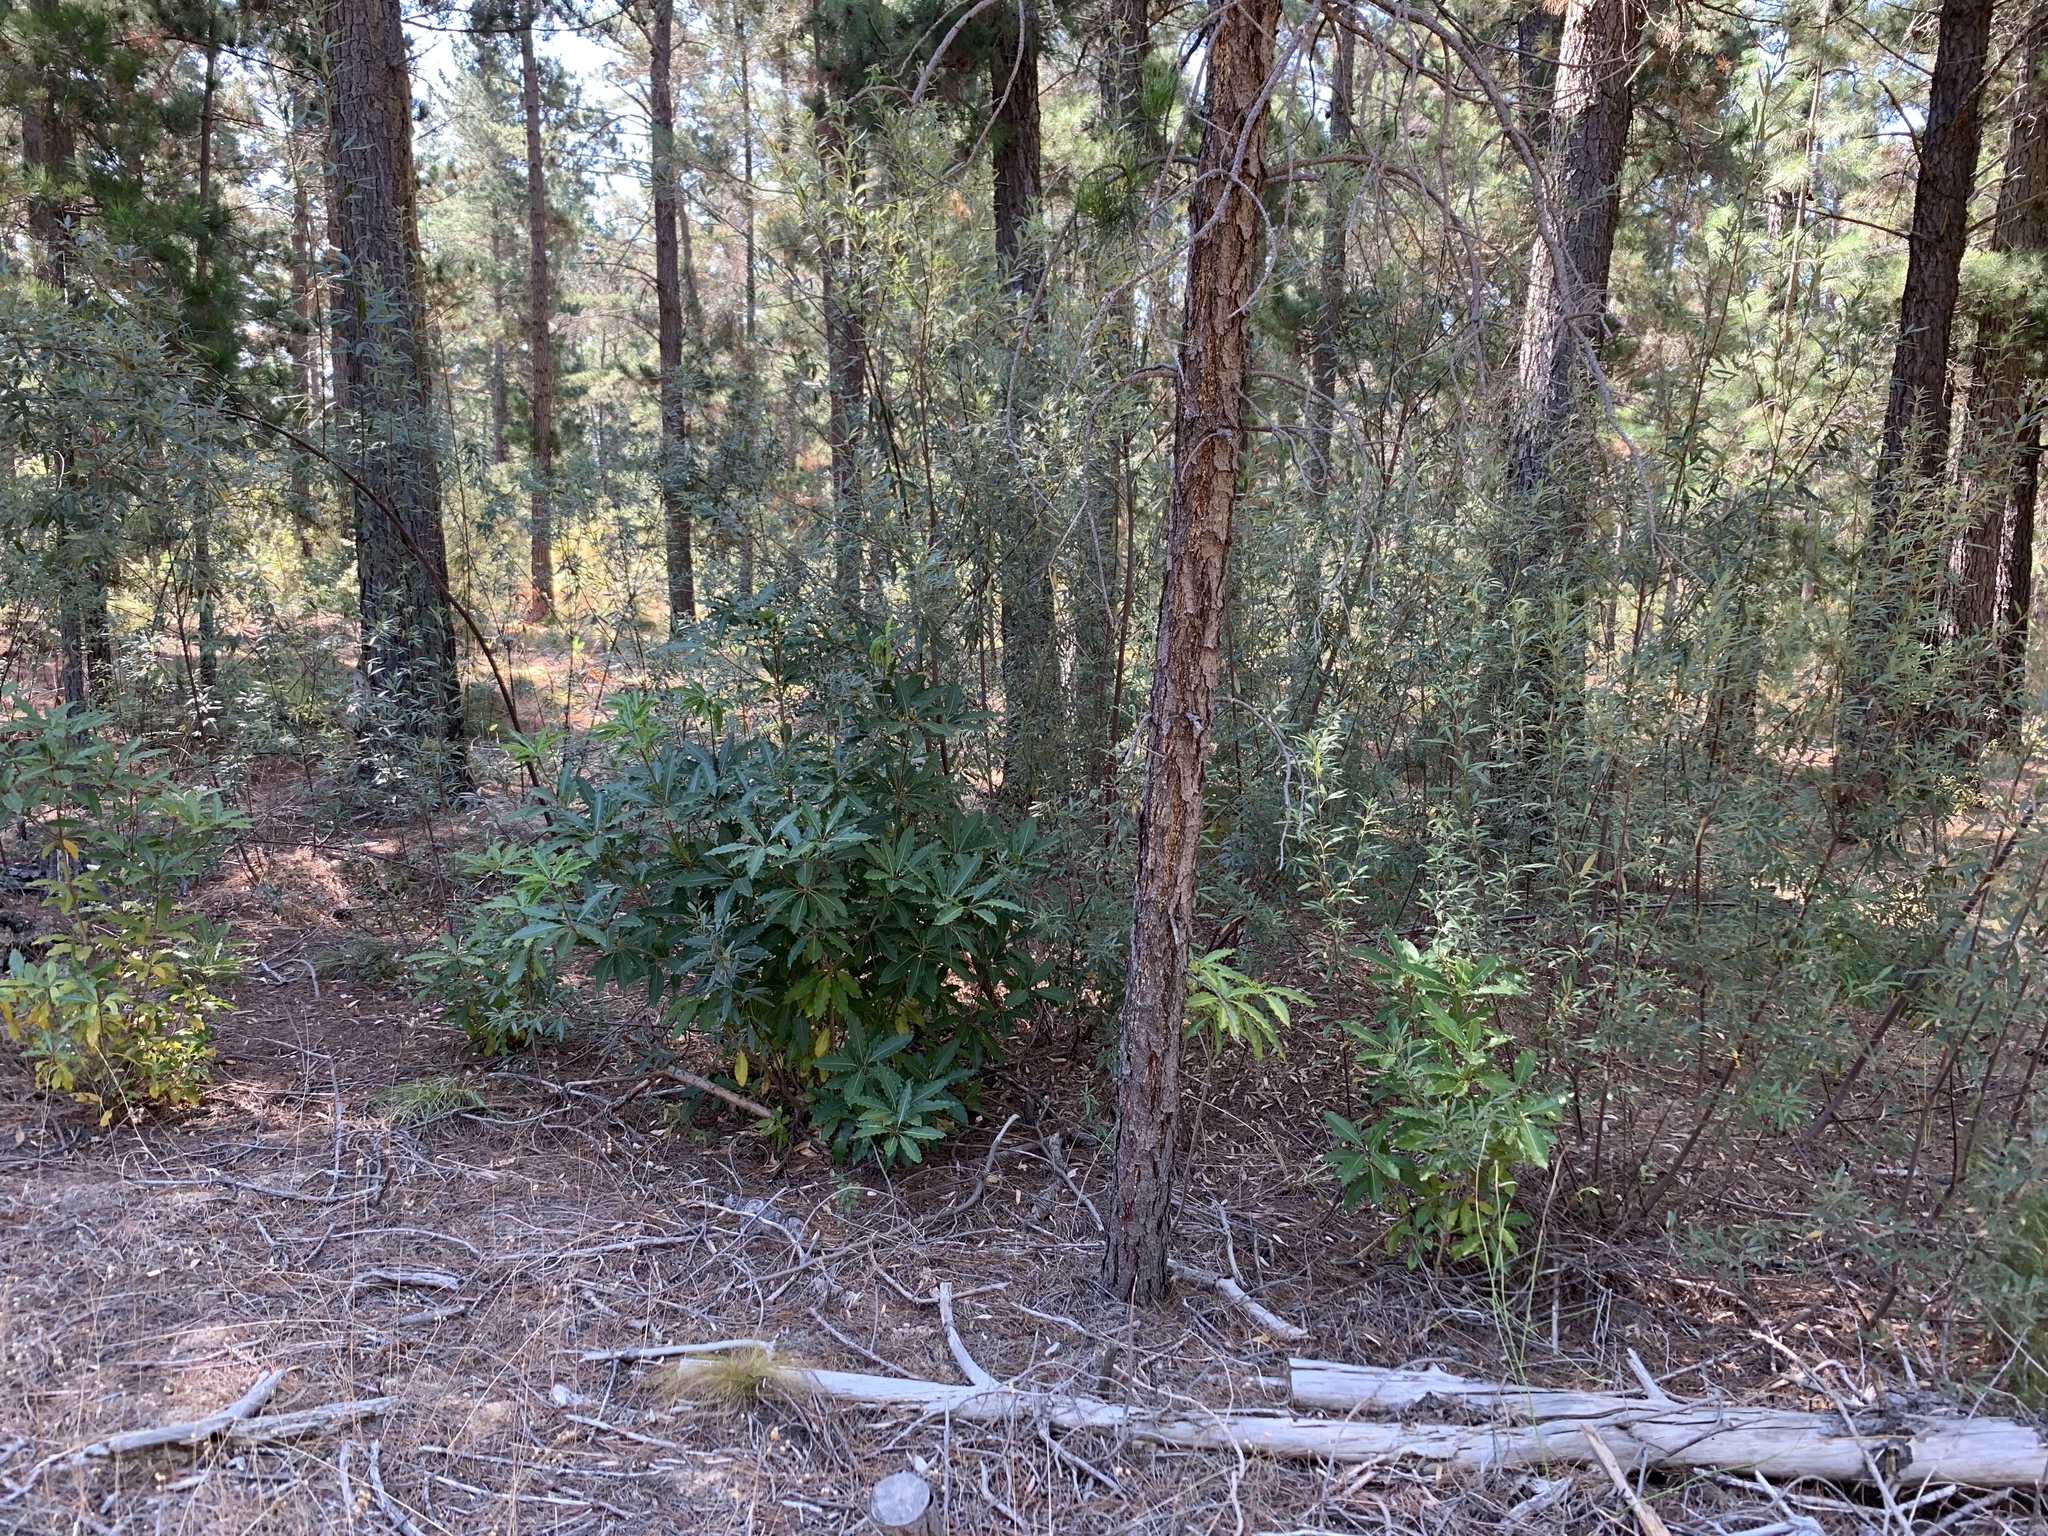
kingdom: Plantae
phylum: Tracheophyta
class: Magnoliopsida
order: Apiales
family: Pittosporaceae
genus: Pittosporum
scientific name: Pittosporum undulatum
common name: Australian cheesewood
